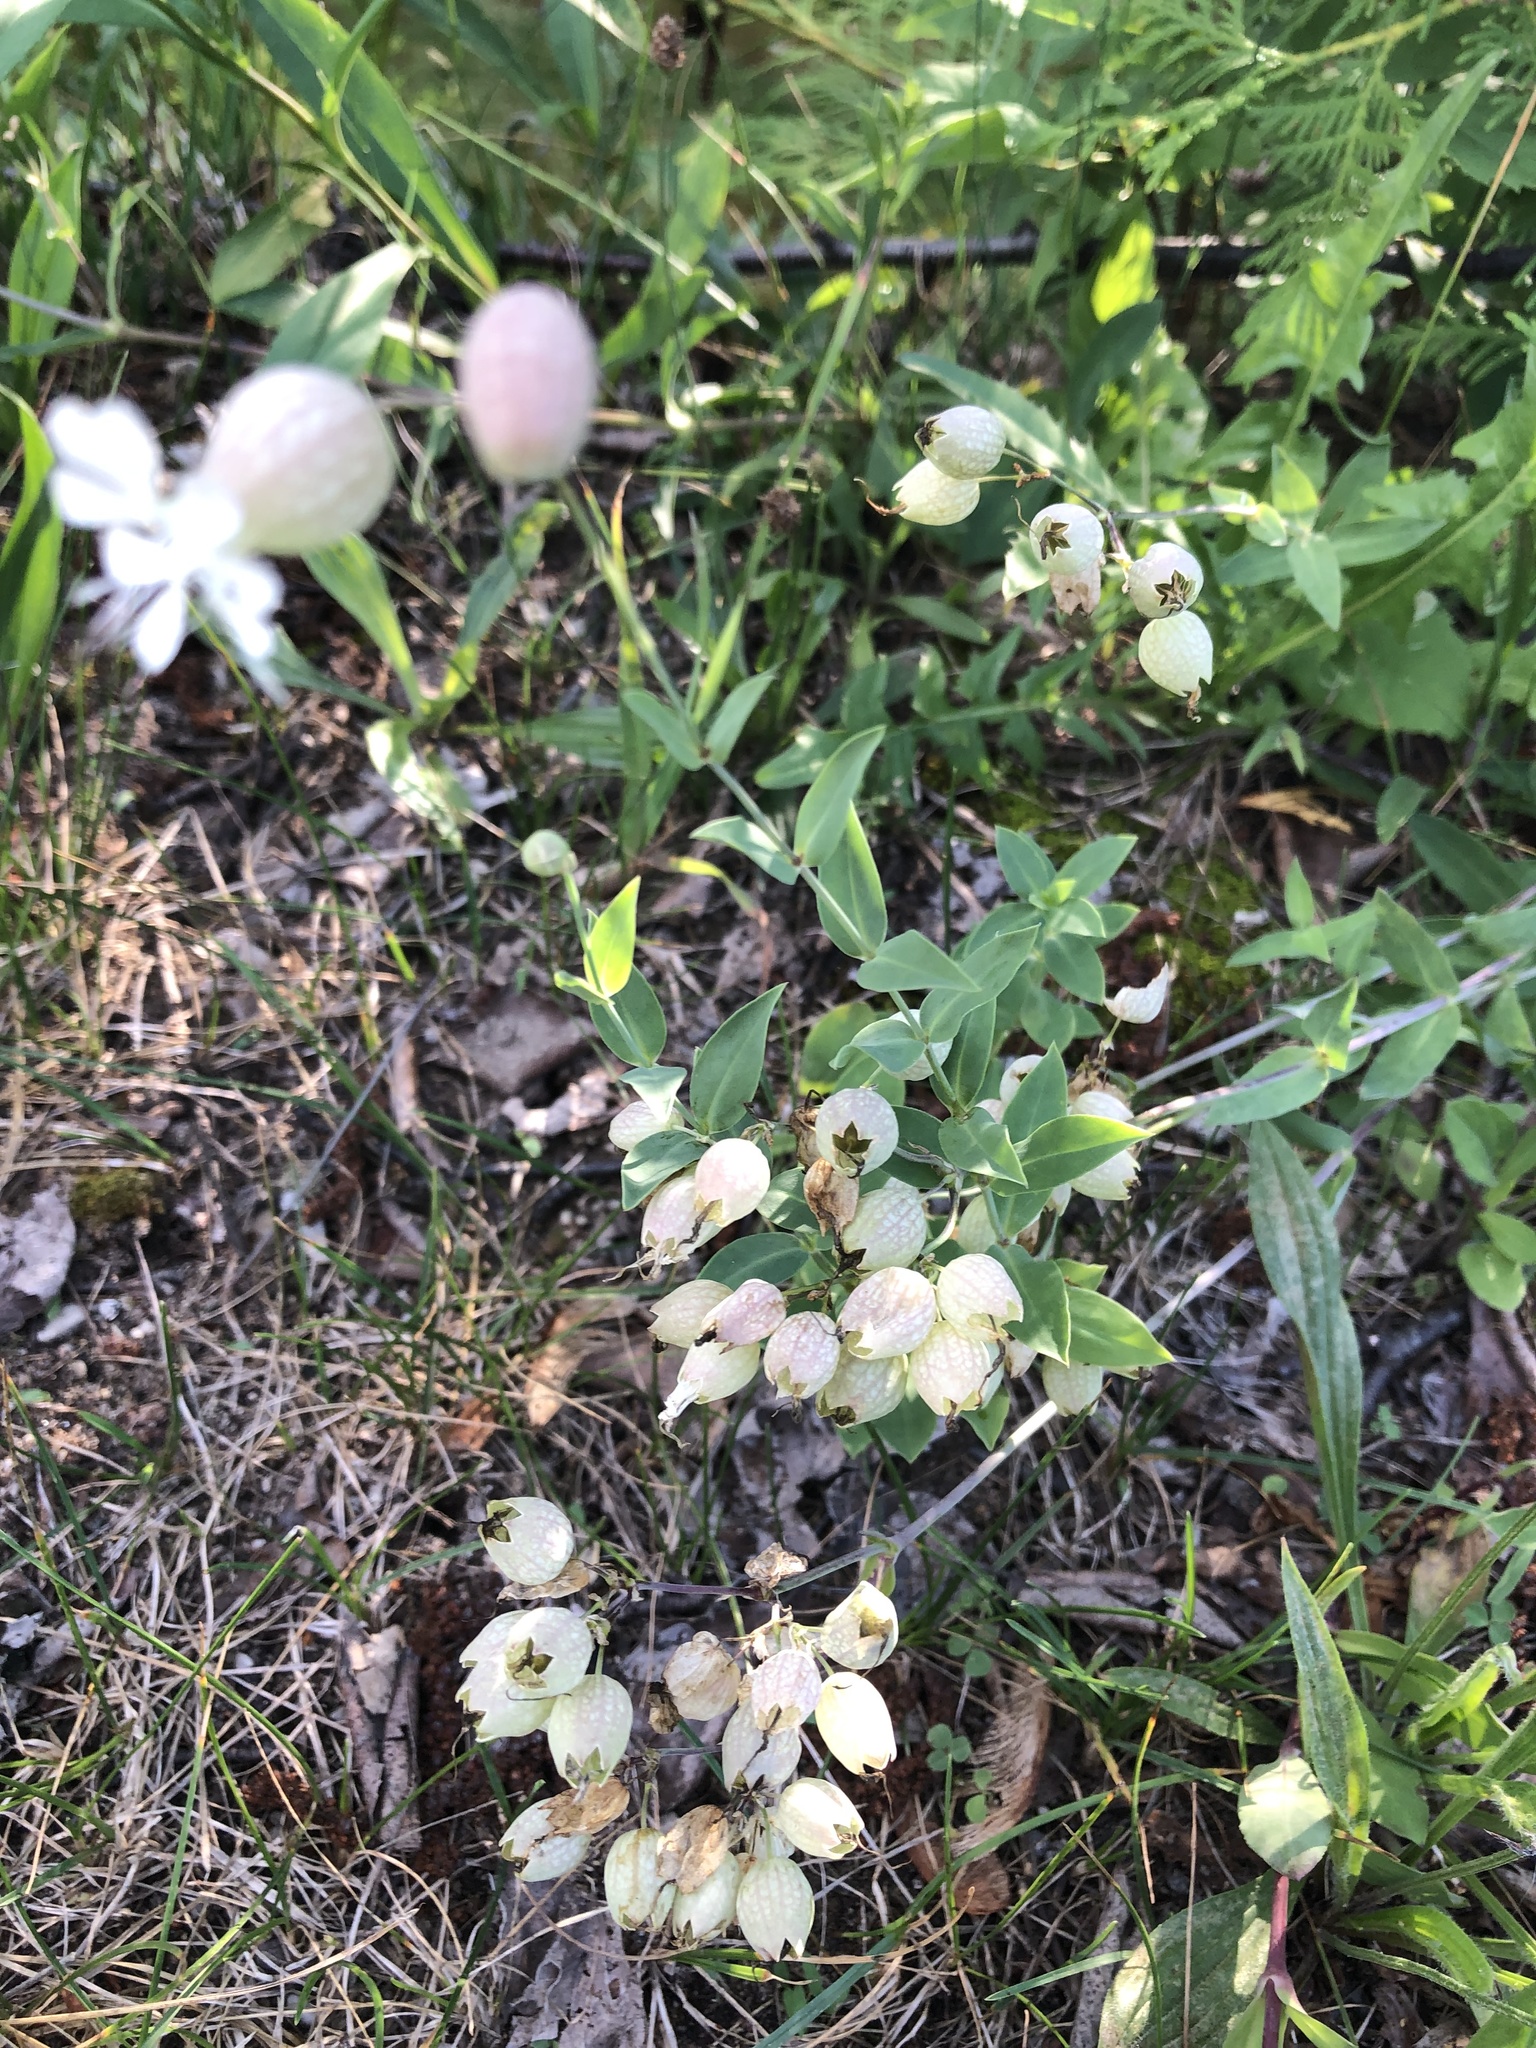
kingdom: Plantae
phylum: Tracheophyta
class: Magnoliopsida
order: Caryophyllales
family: Caryophyllaceae
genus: Silene
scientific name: Silene vulgaris
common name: Bladder campion
